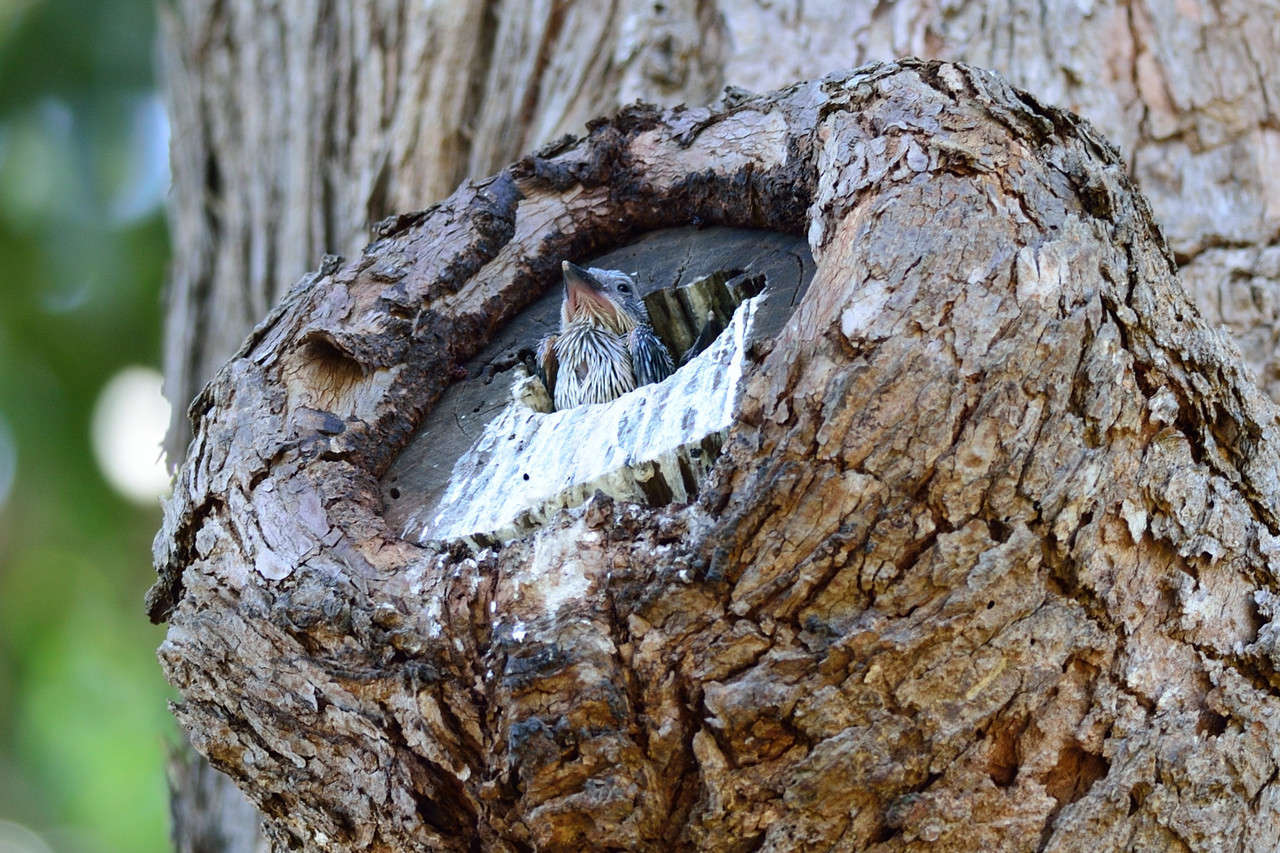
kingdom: Animalia
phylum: Chordata
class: Aves
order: Coraciiformes
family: Alcedinidae
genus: Todiramphus
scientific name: Todiramphus sanctus
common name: Sacred kingfisher
